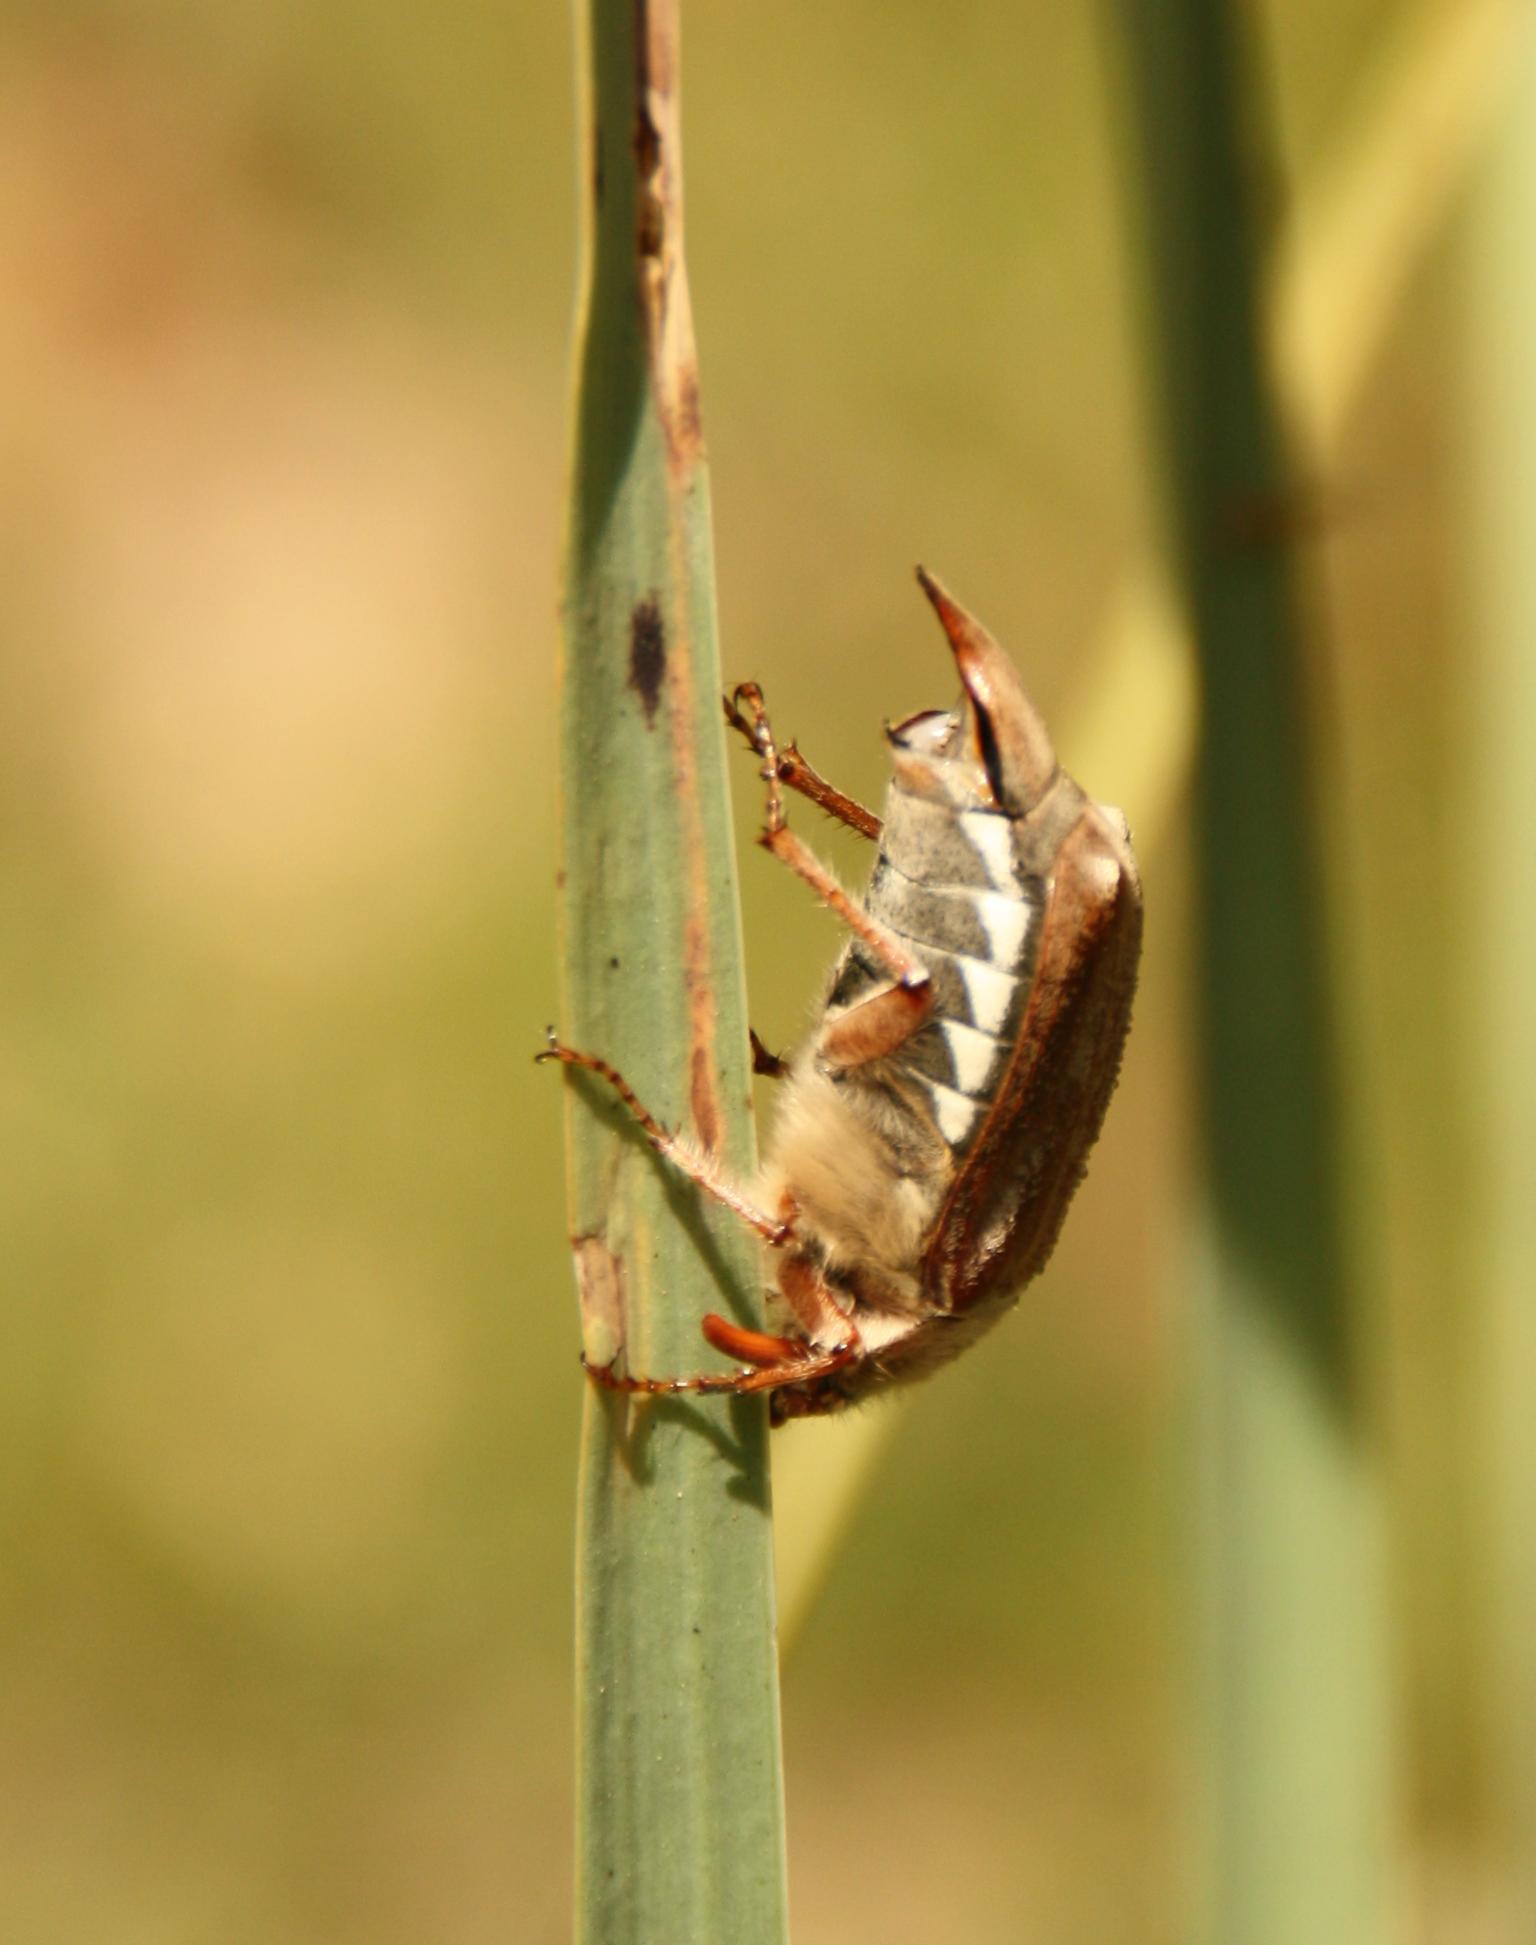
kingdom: Animalia
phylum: Arthropoda
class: Insecta
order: Coleoptera
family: Scarabaeidae
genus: Melolontha
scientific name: Melolontha melolontha
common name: Cockchafer maybeetle
